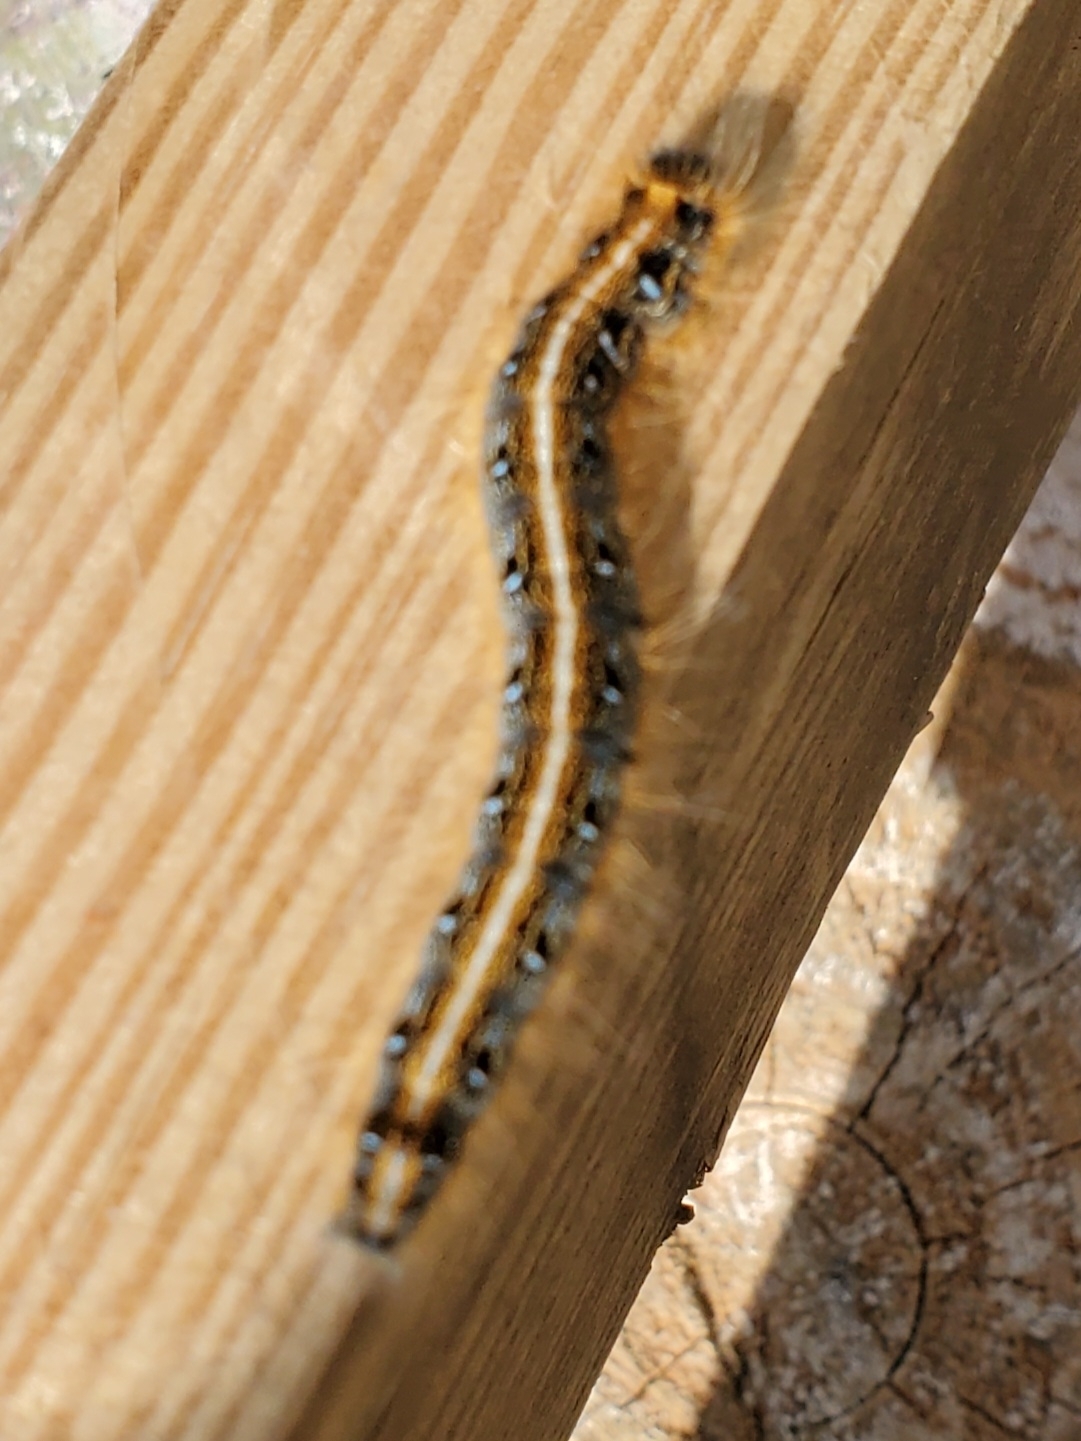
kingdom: Animalia
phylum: Arthropoda
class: Insecta
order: Lepidoptera
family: Lasiocampidae
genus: Malacosoma
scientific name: Malacosoma americana
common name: Eastern tent caterpillar moth
